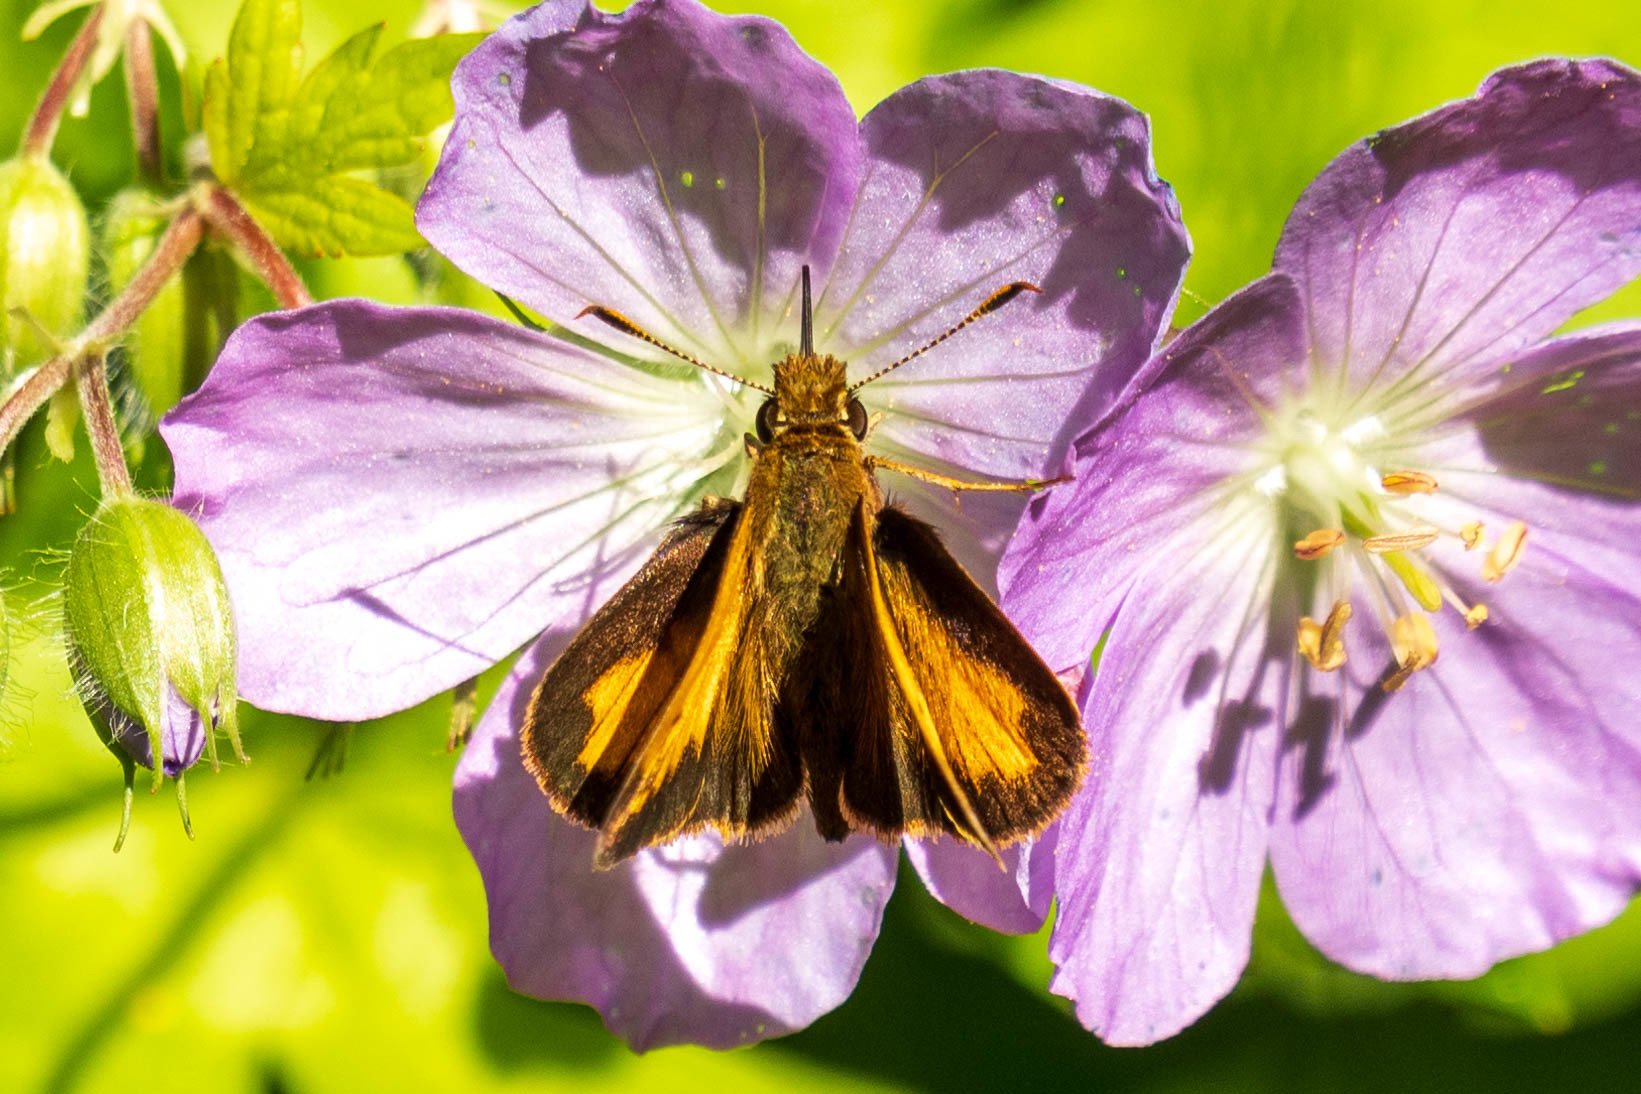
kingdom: Animalia
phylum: Arthropoda
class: Insecta
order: Lepidoptera
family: Hesperiidae
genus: Lon
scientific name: Lon hobomok
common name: Hobomok skipper
